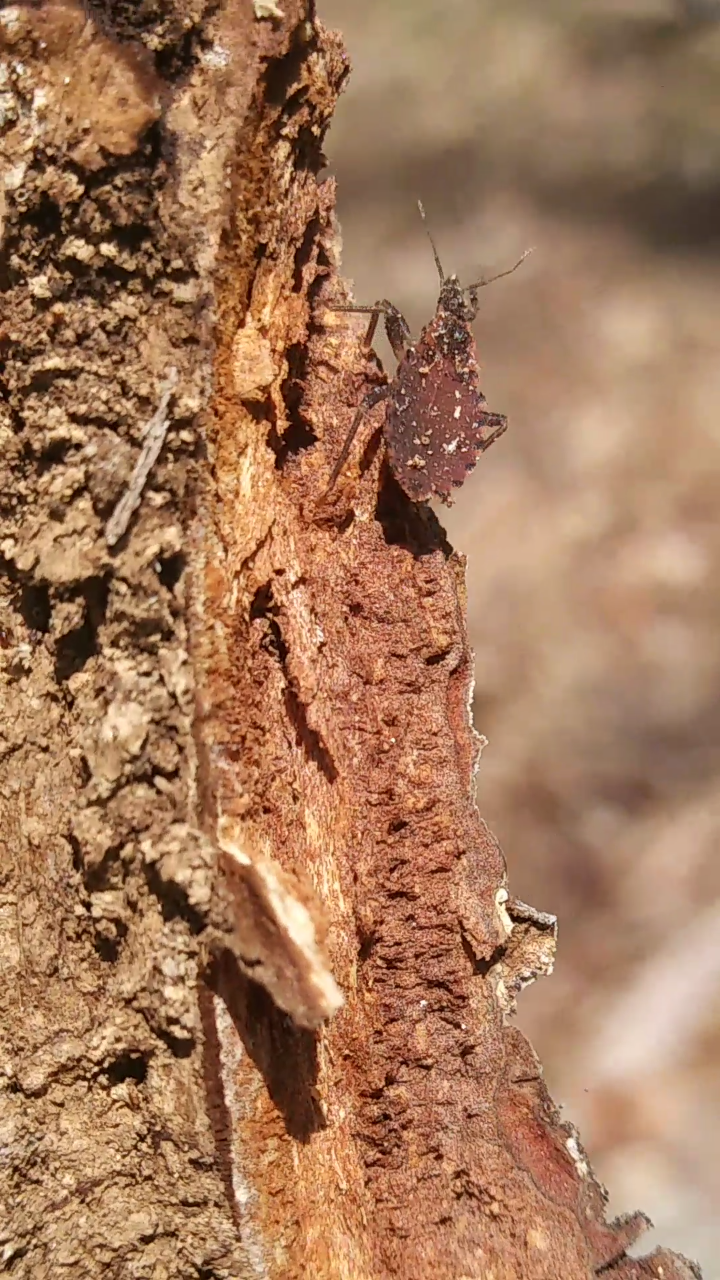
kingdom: Animalia
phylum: Arthropoda
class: Insecta
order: Hemiptera
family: Reduviidae
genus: Triatoma
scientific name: Triatoma sanguisuga
